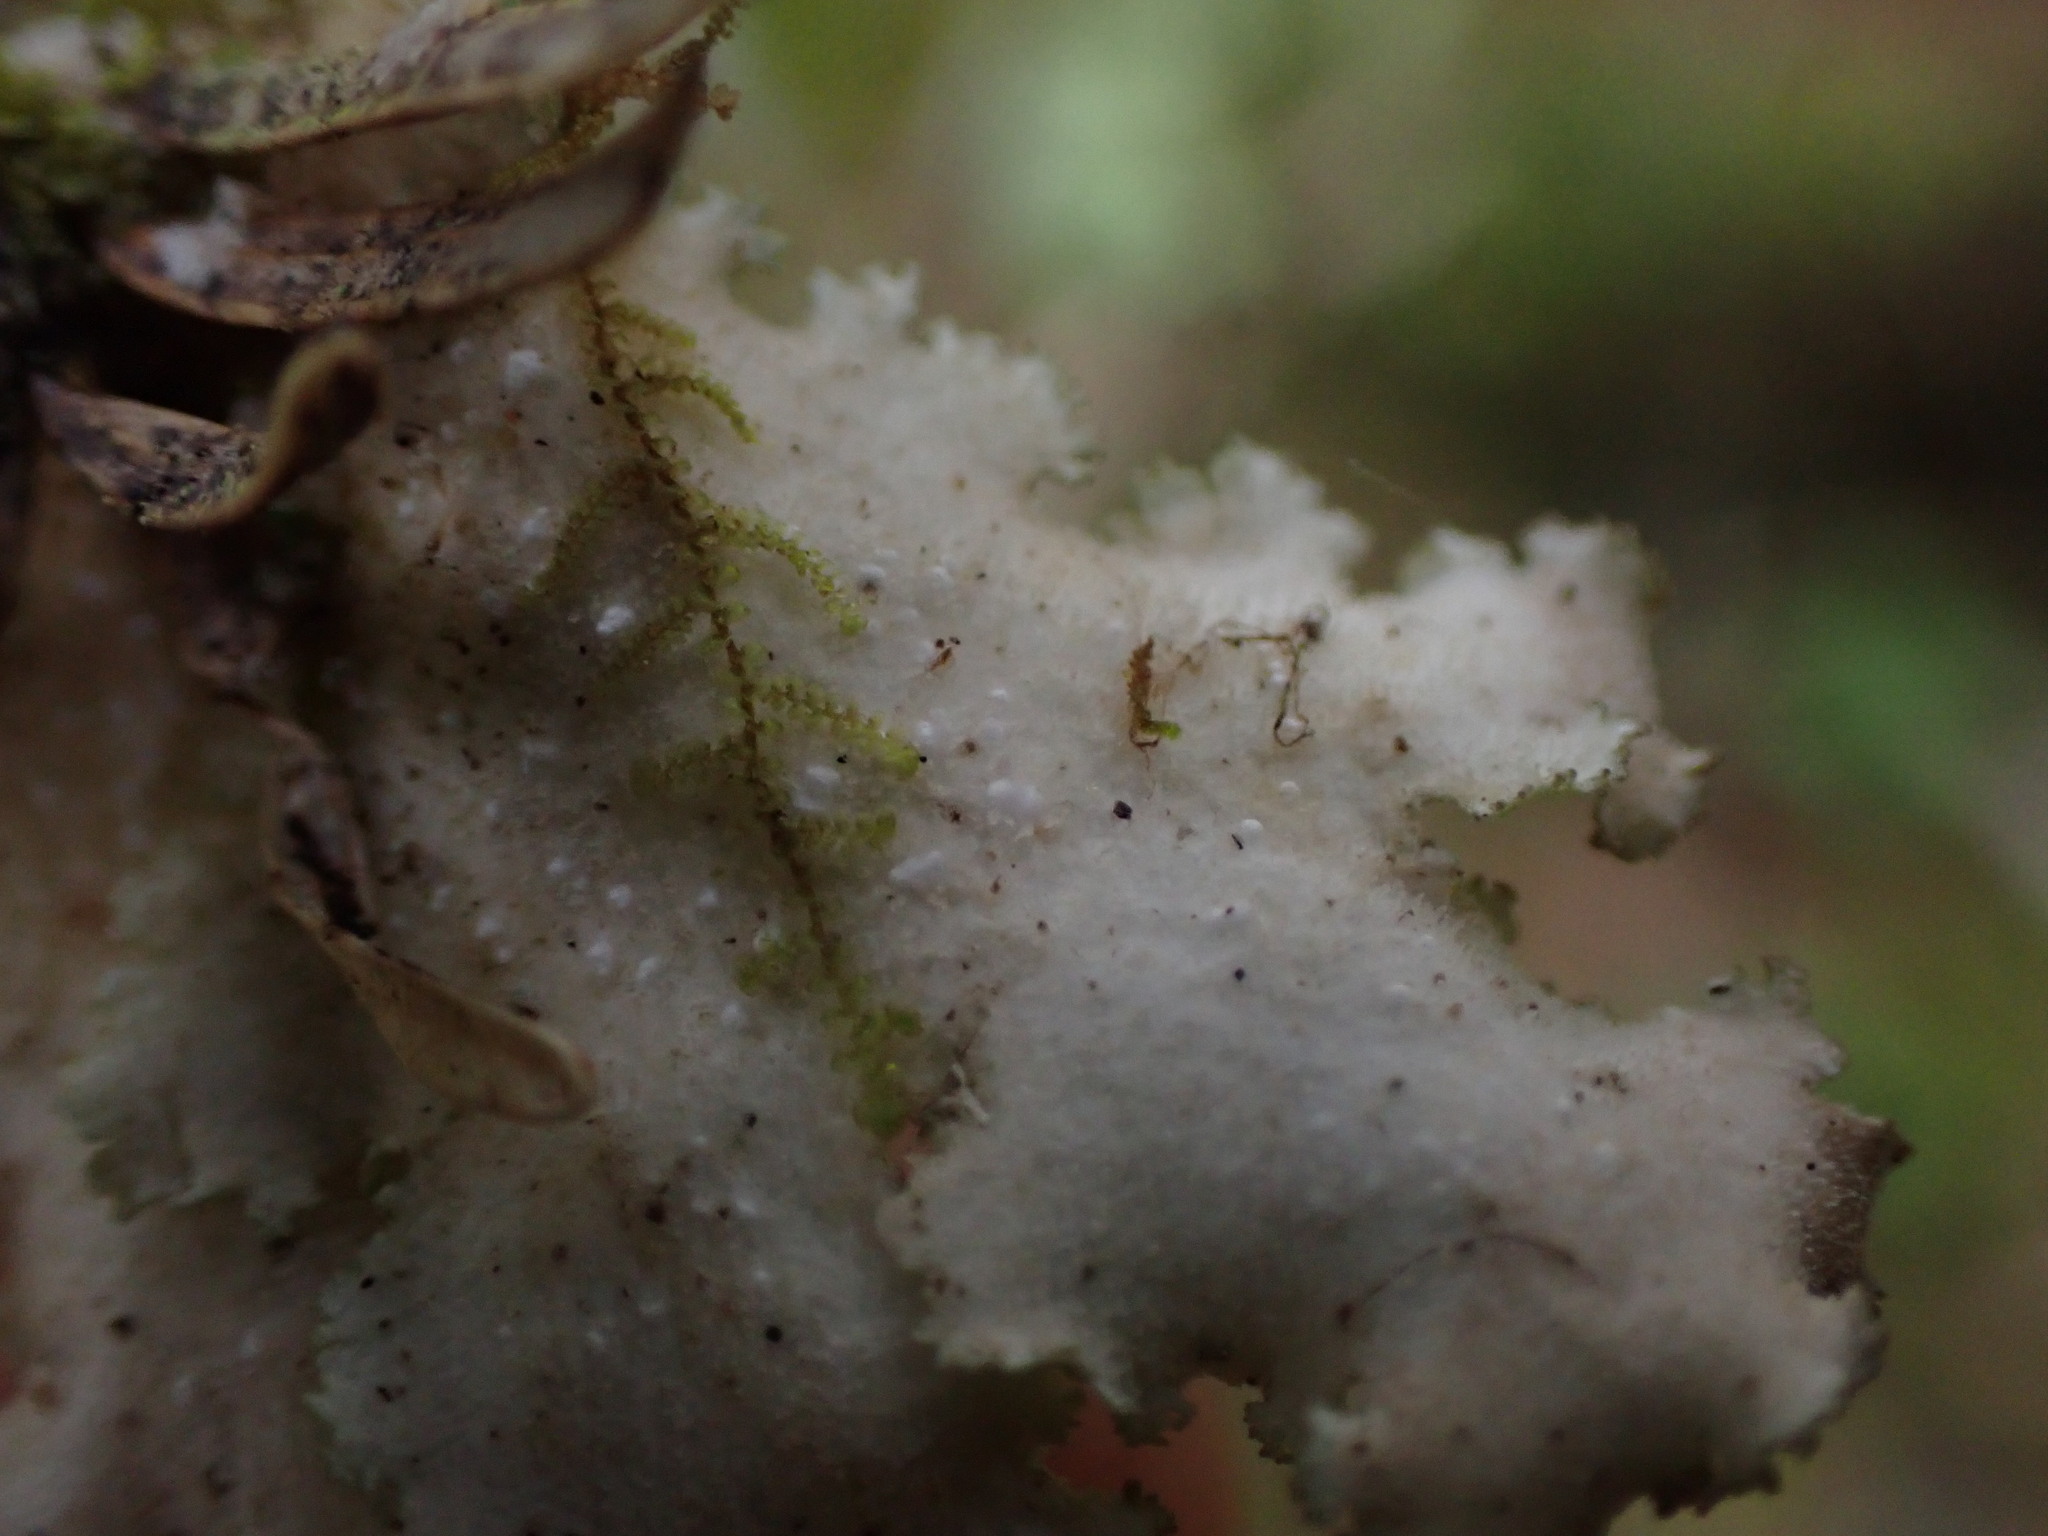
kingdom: Fungi
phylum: Ascomycota
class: Lecanoromycetes
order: Peltigerales
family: Lobariaceae
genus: Pseudocyphellaria
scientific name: Pseudocyphellaria rainierensis
